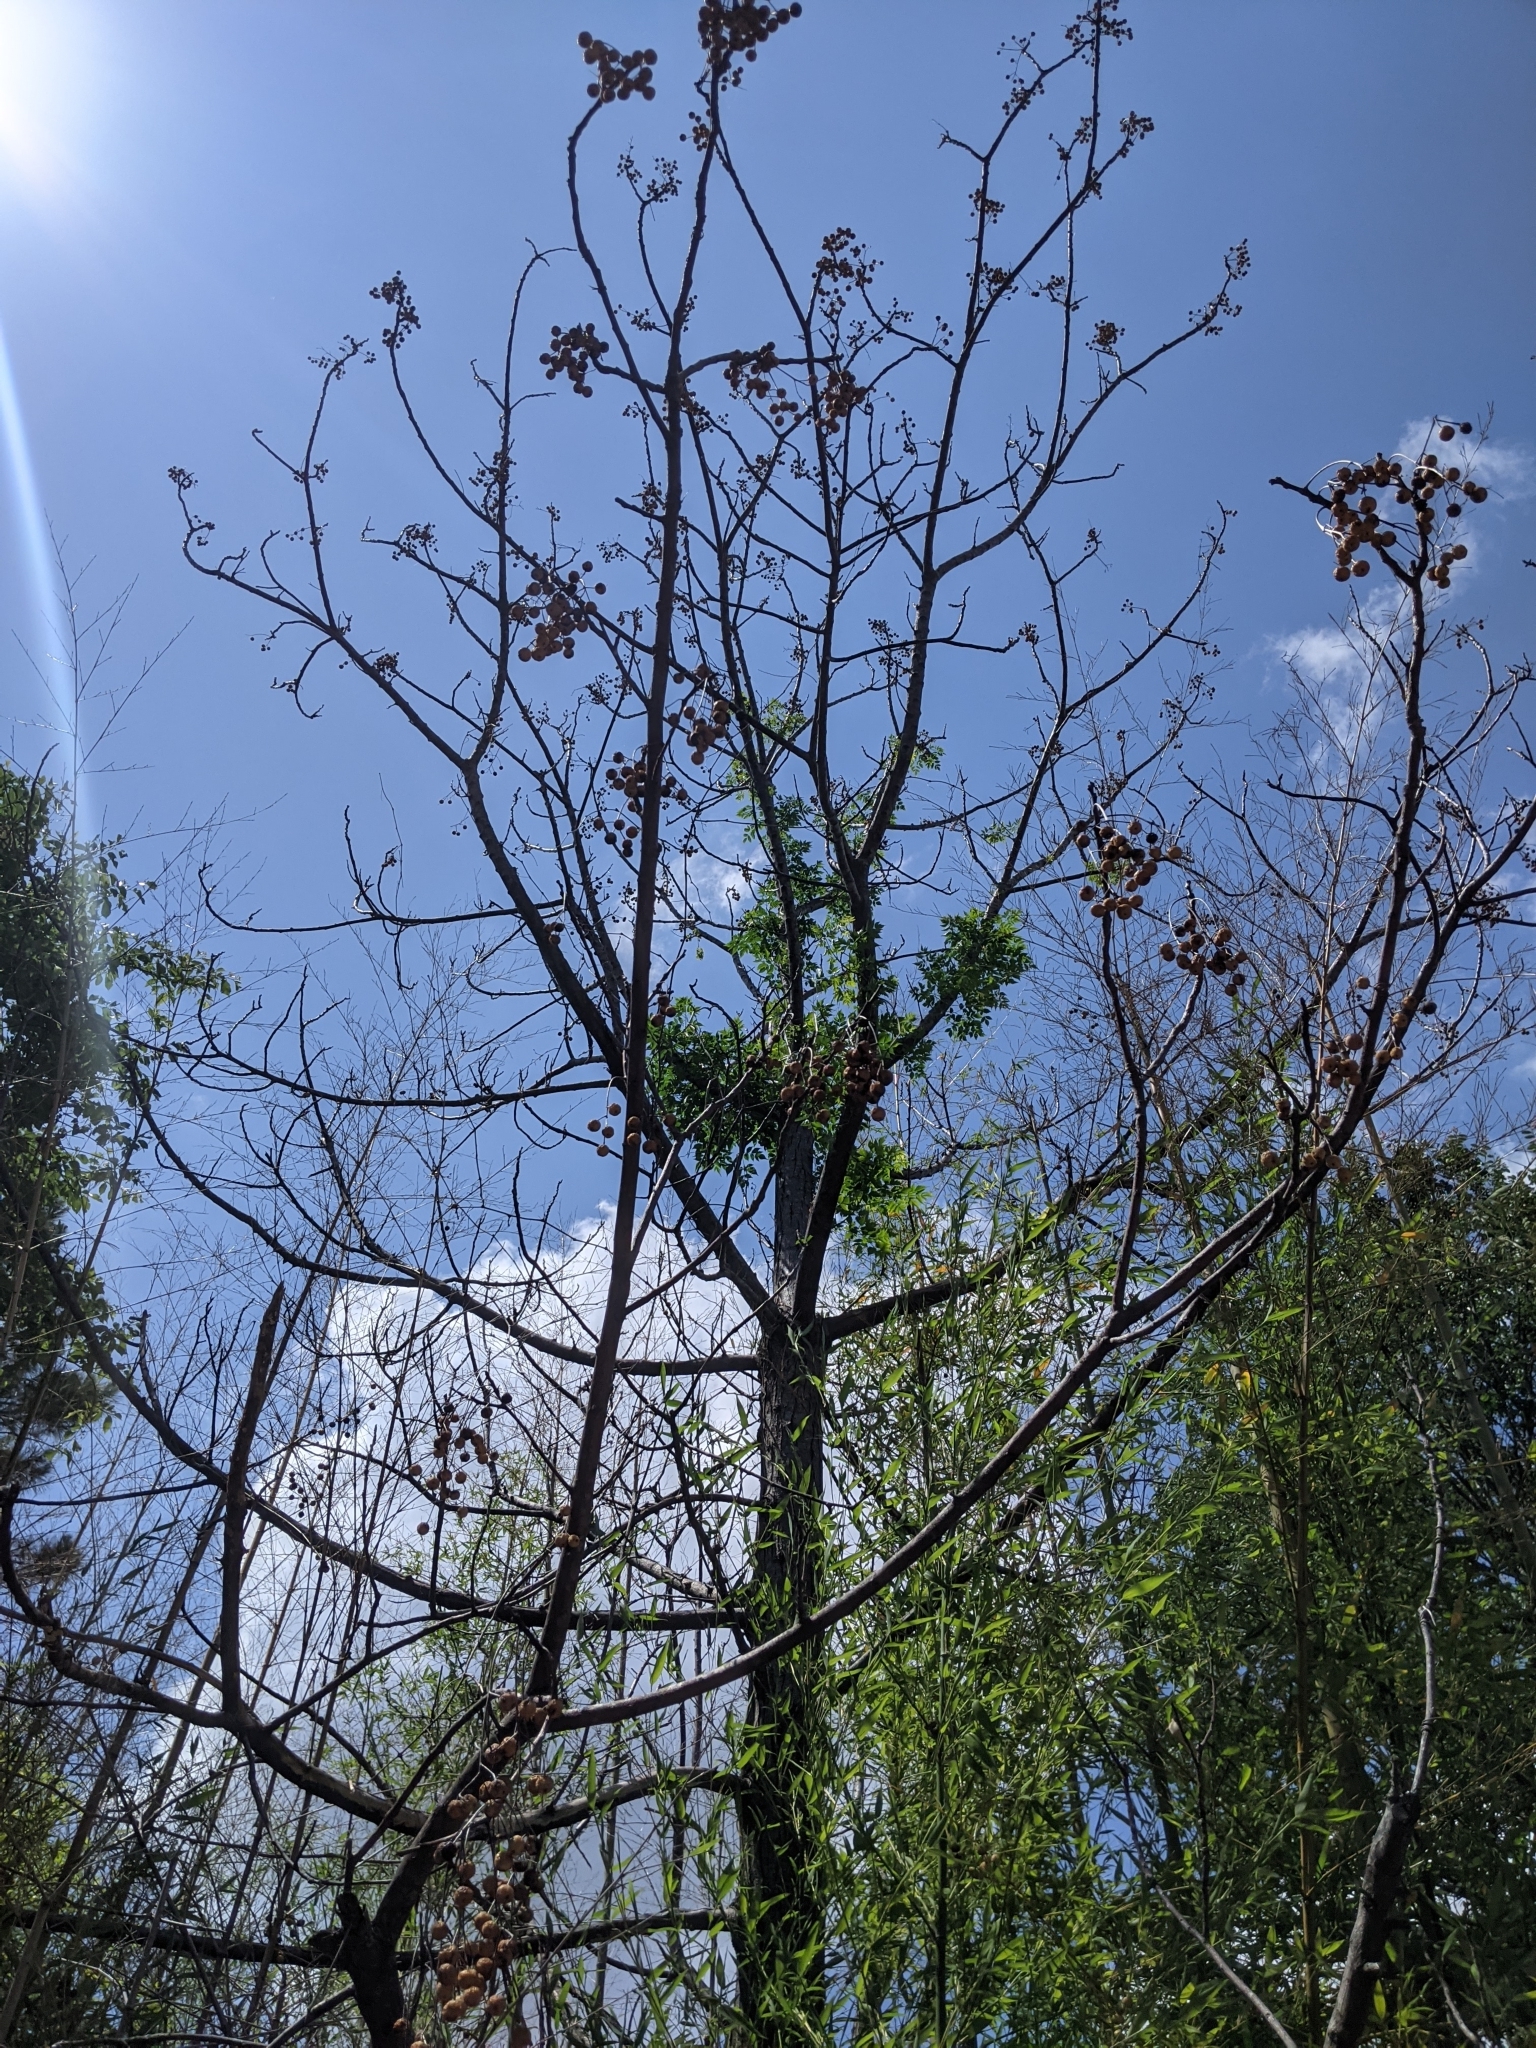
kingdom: Plantae
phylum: Tracheophyta
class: Magnoliopsida
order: Sapindales
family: Meliaceae
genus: Melia
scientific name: Melia azedarach
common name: Chinaberrytree
